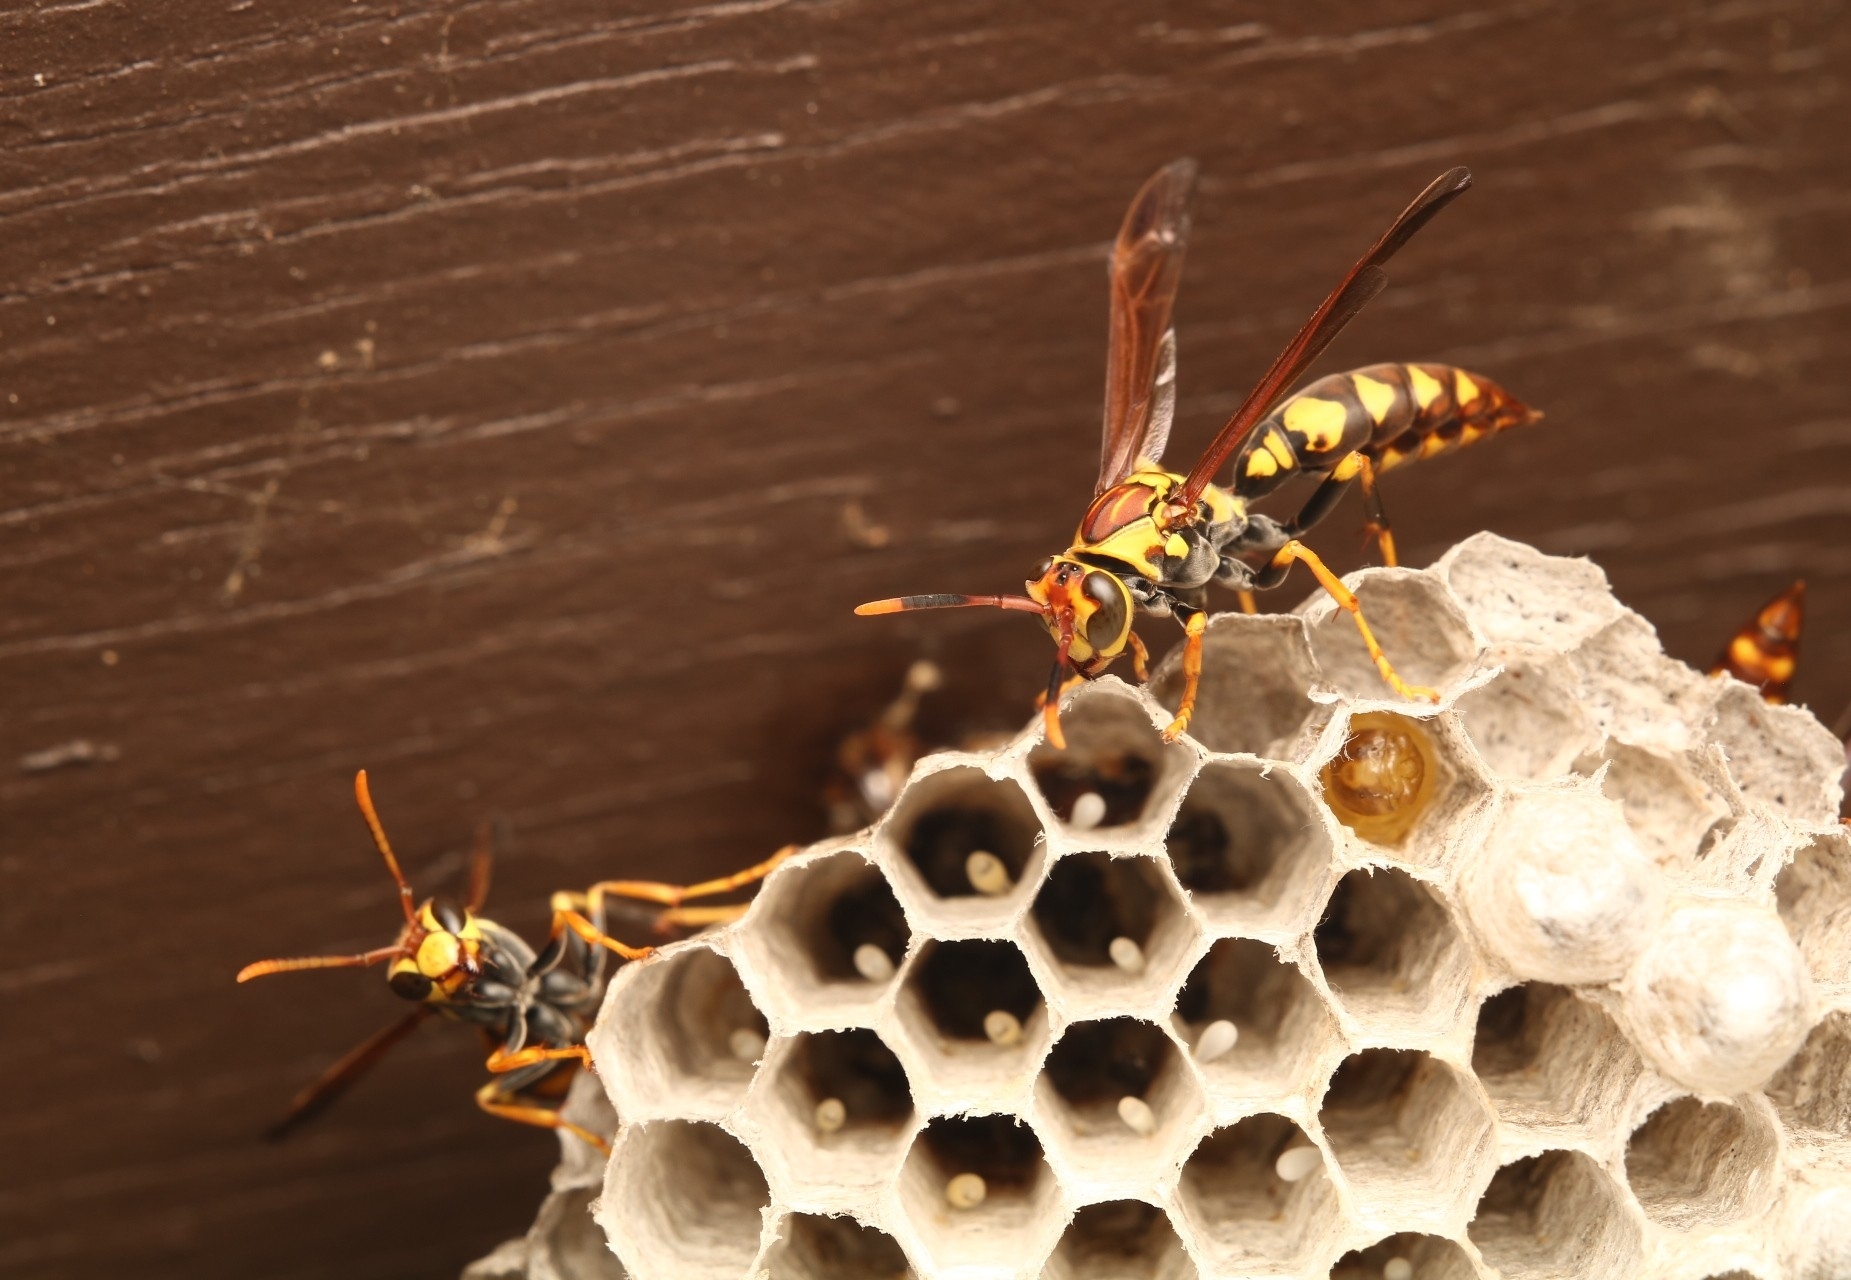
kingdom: Animalia
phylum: Arthropoda
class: Insecta
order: Hymenoptera
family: Eumenidae
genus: Polistes
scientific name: Polistes myersi
